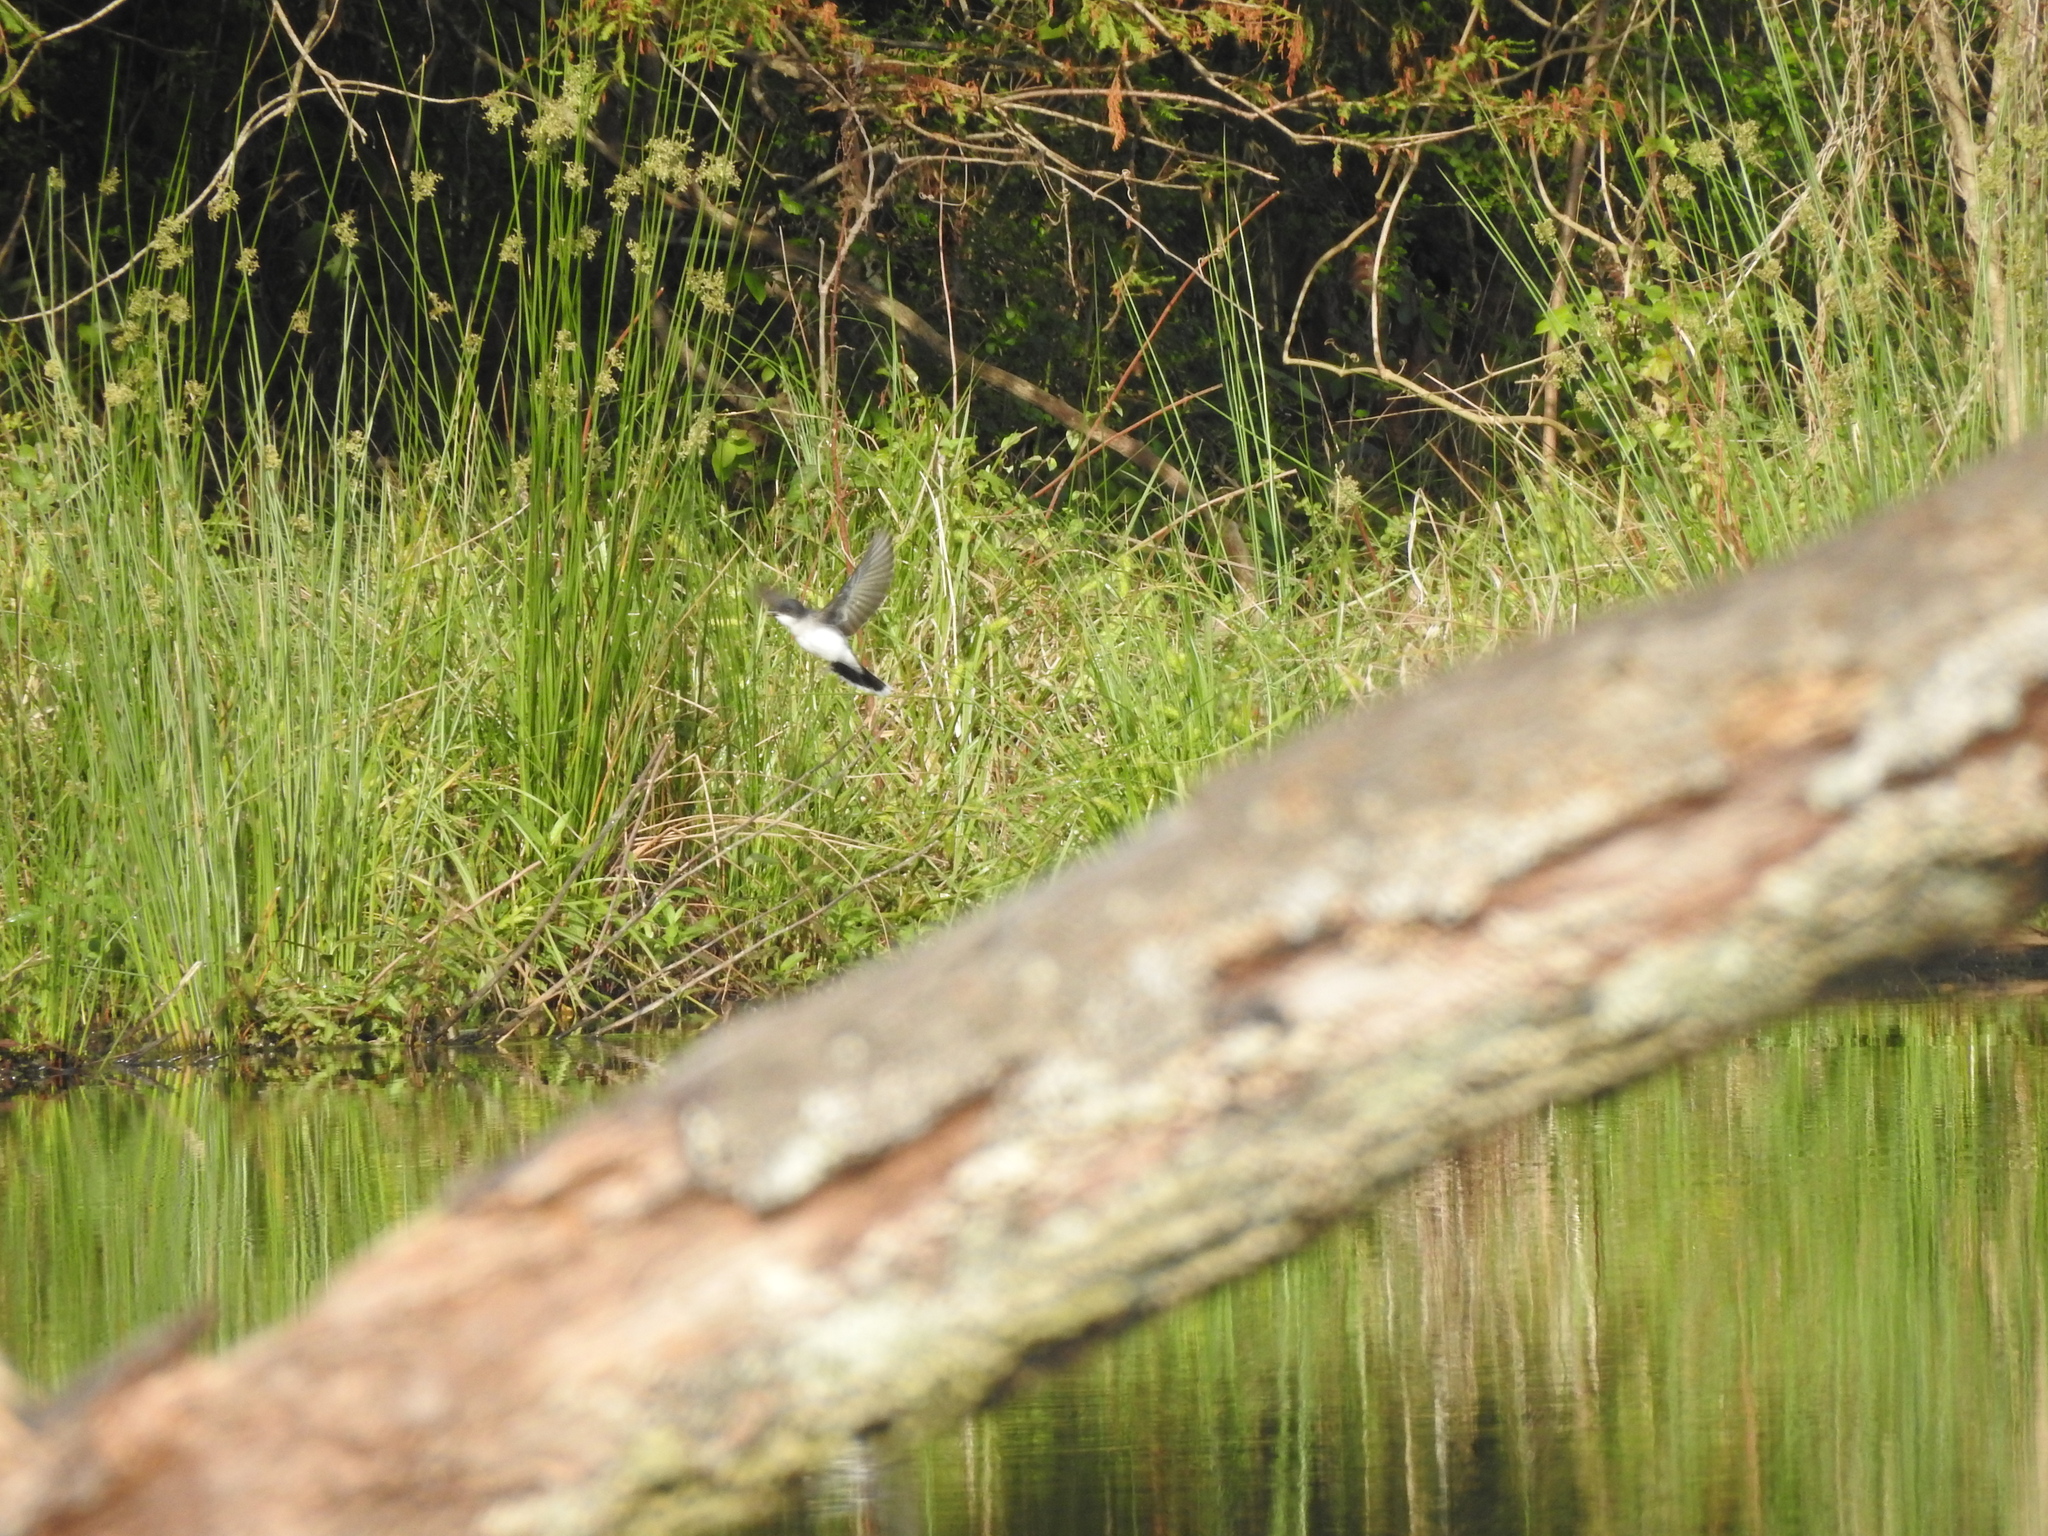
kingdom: Animalia
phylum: Chordata
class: Aves
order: Passeriformes
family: Tyrannidae
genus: Tyrannus
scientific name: Tyrannus tyrannus
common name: Eastern kingbird
